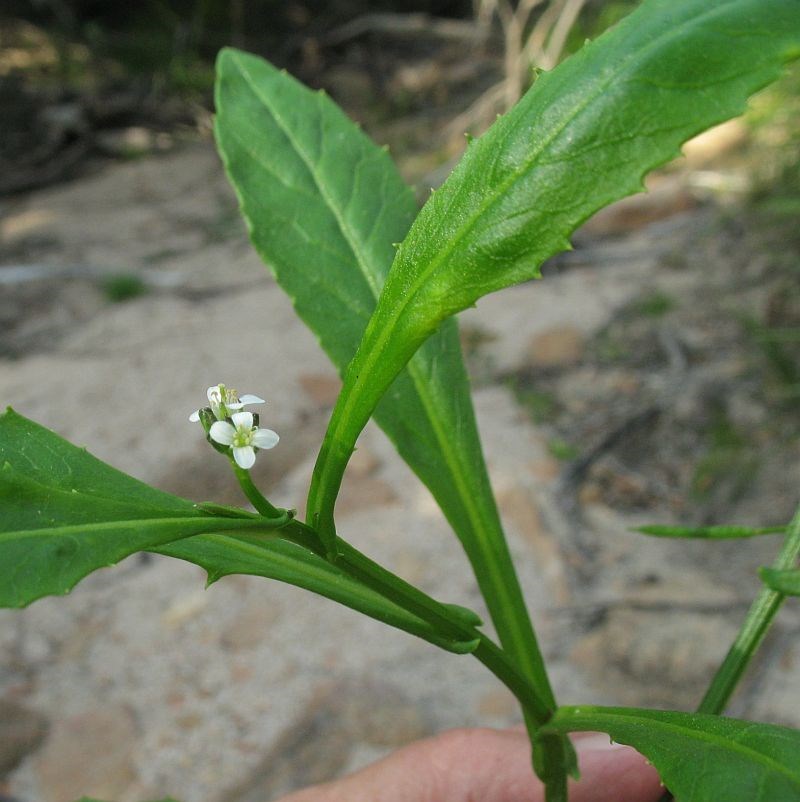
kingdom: Plantae
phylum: Tracheophyta
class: Magnoliopsida
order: Brassicales
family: Brassicaceae
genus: Rorippa
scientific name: Rorippa gigantea
